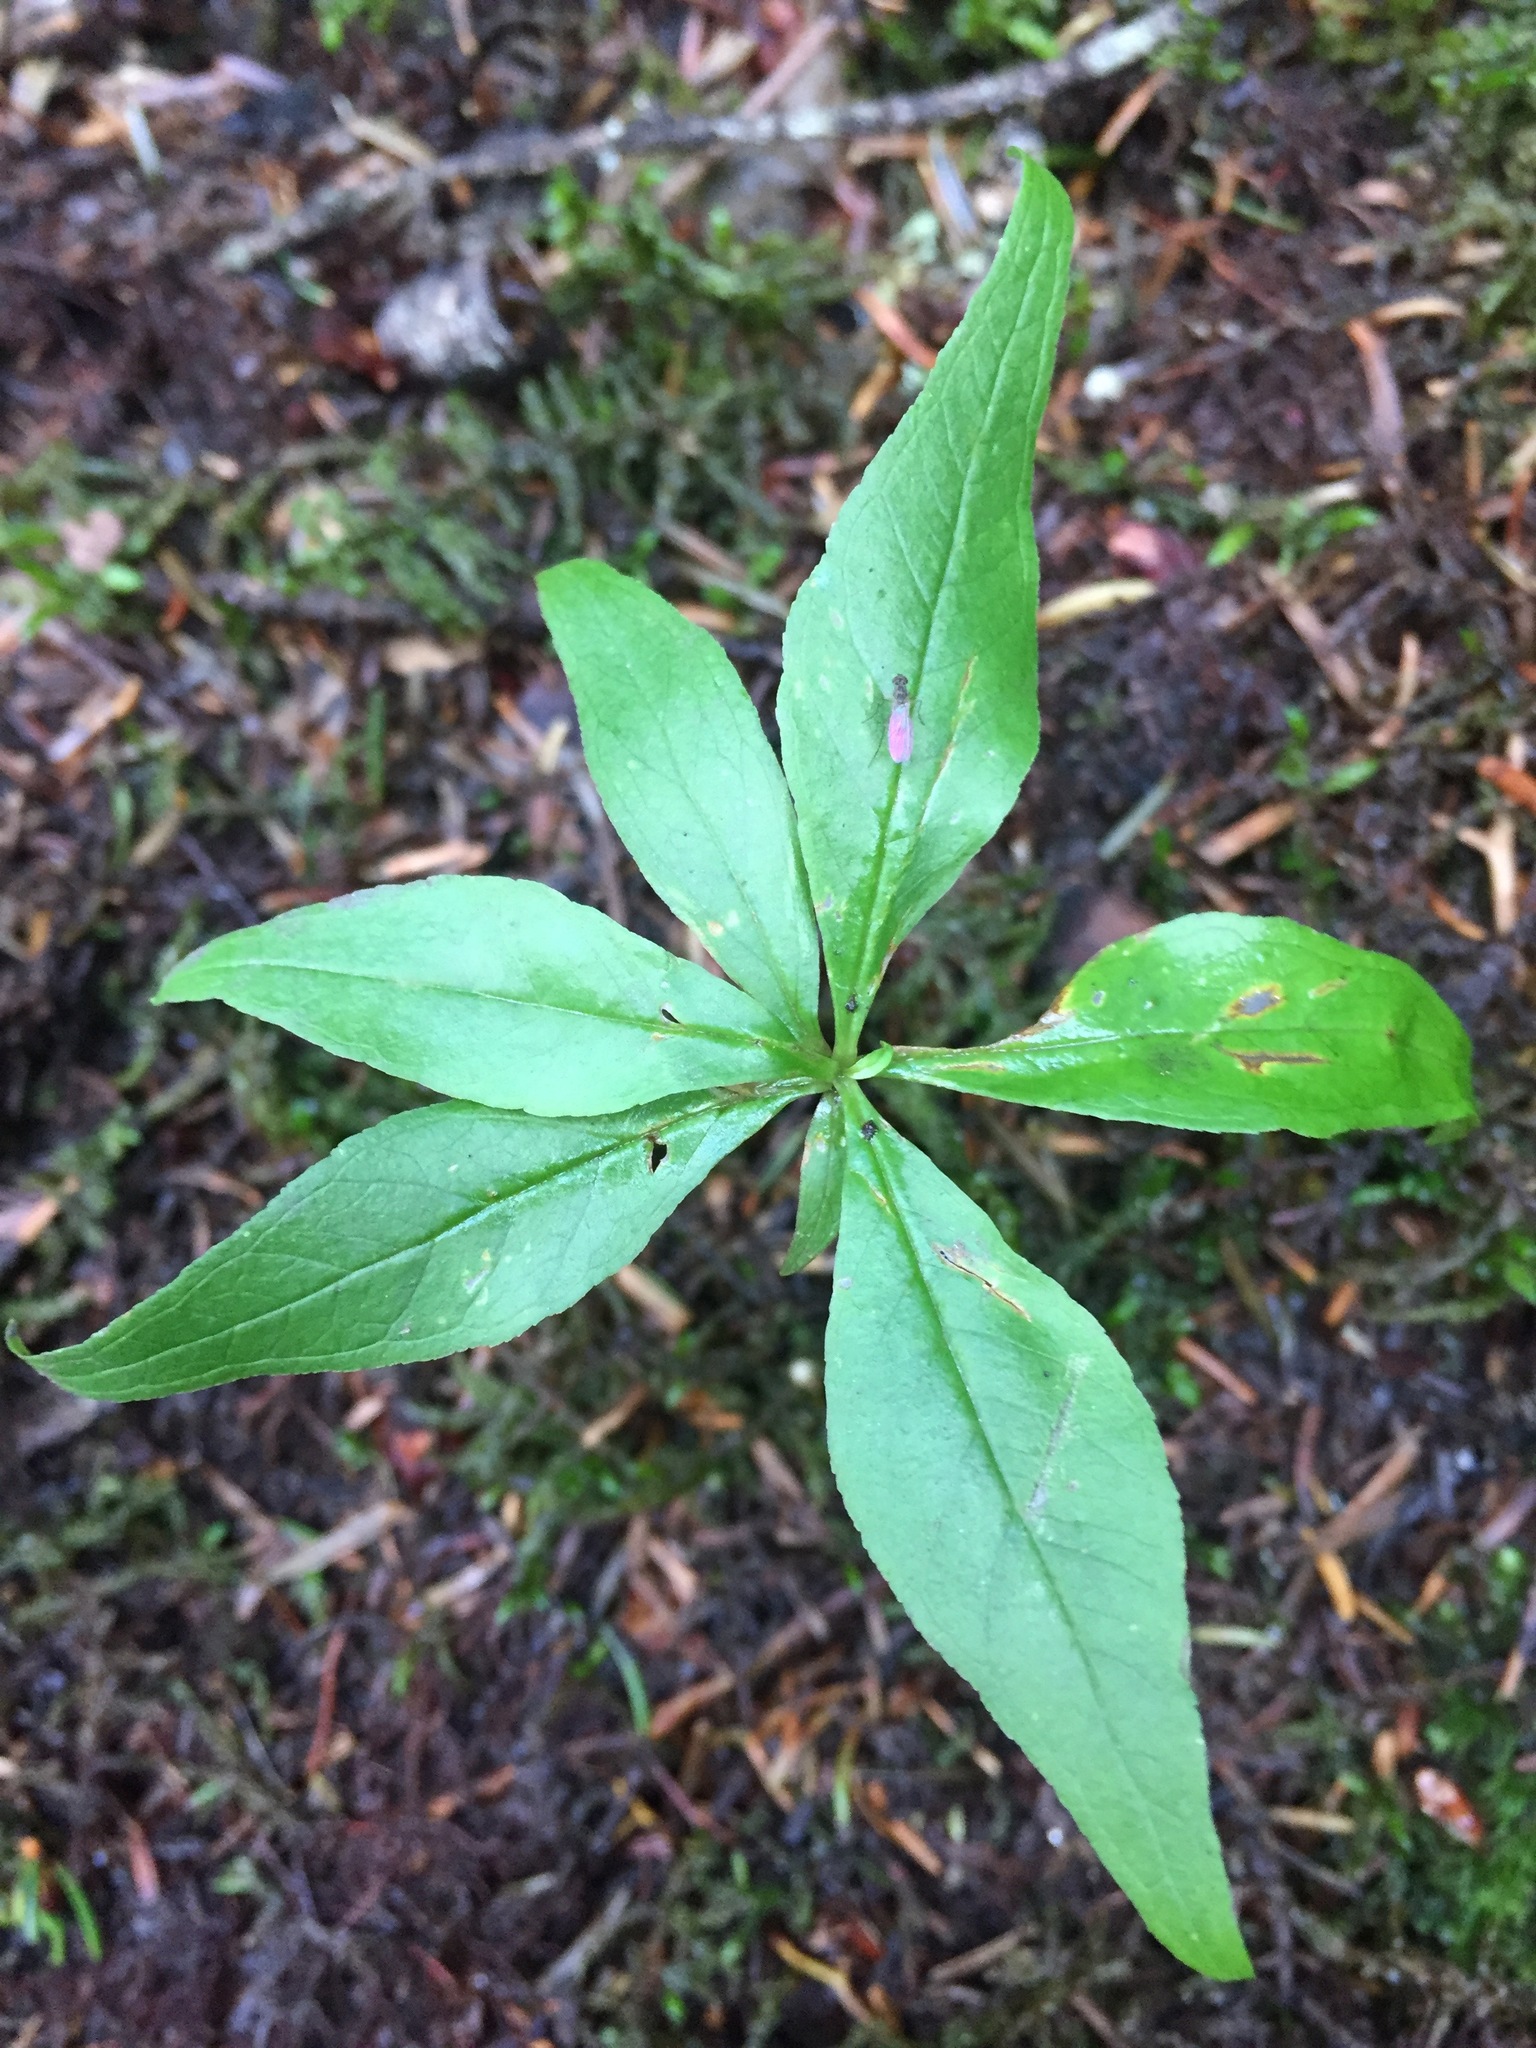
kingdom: Plantae
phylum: Tracheophyta
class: Magnoliopsida
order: Ericales
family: Primulaceae
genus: Lysimachia
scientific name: Lysimachia borealis
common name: American starflower
